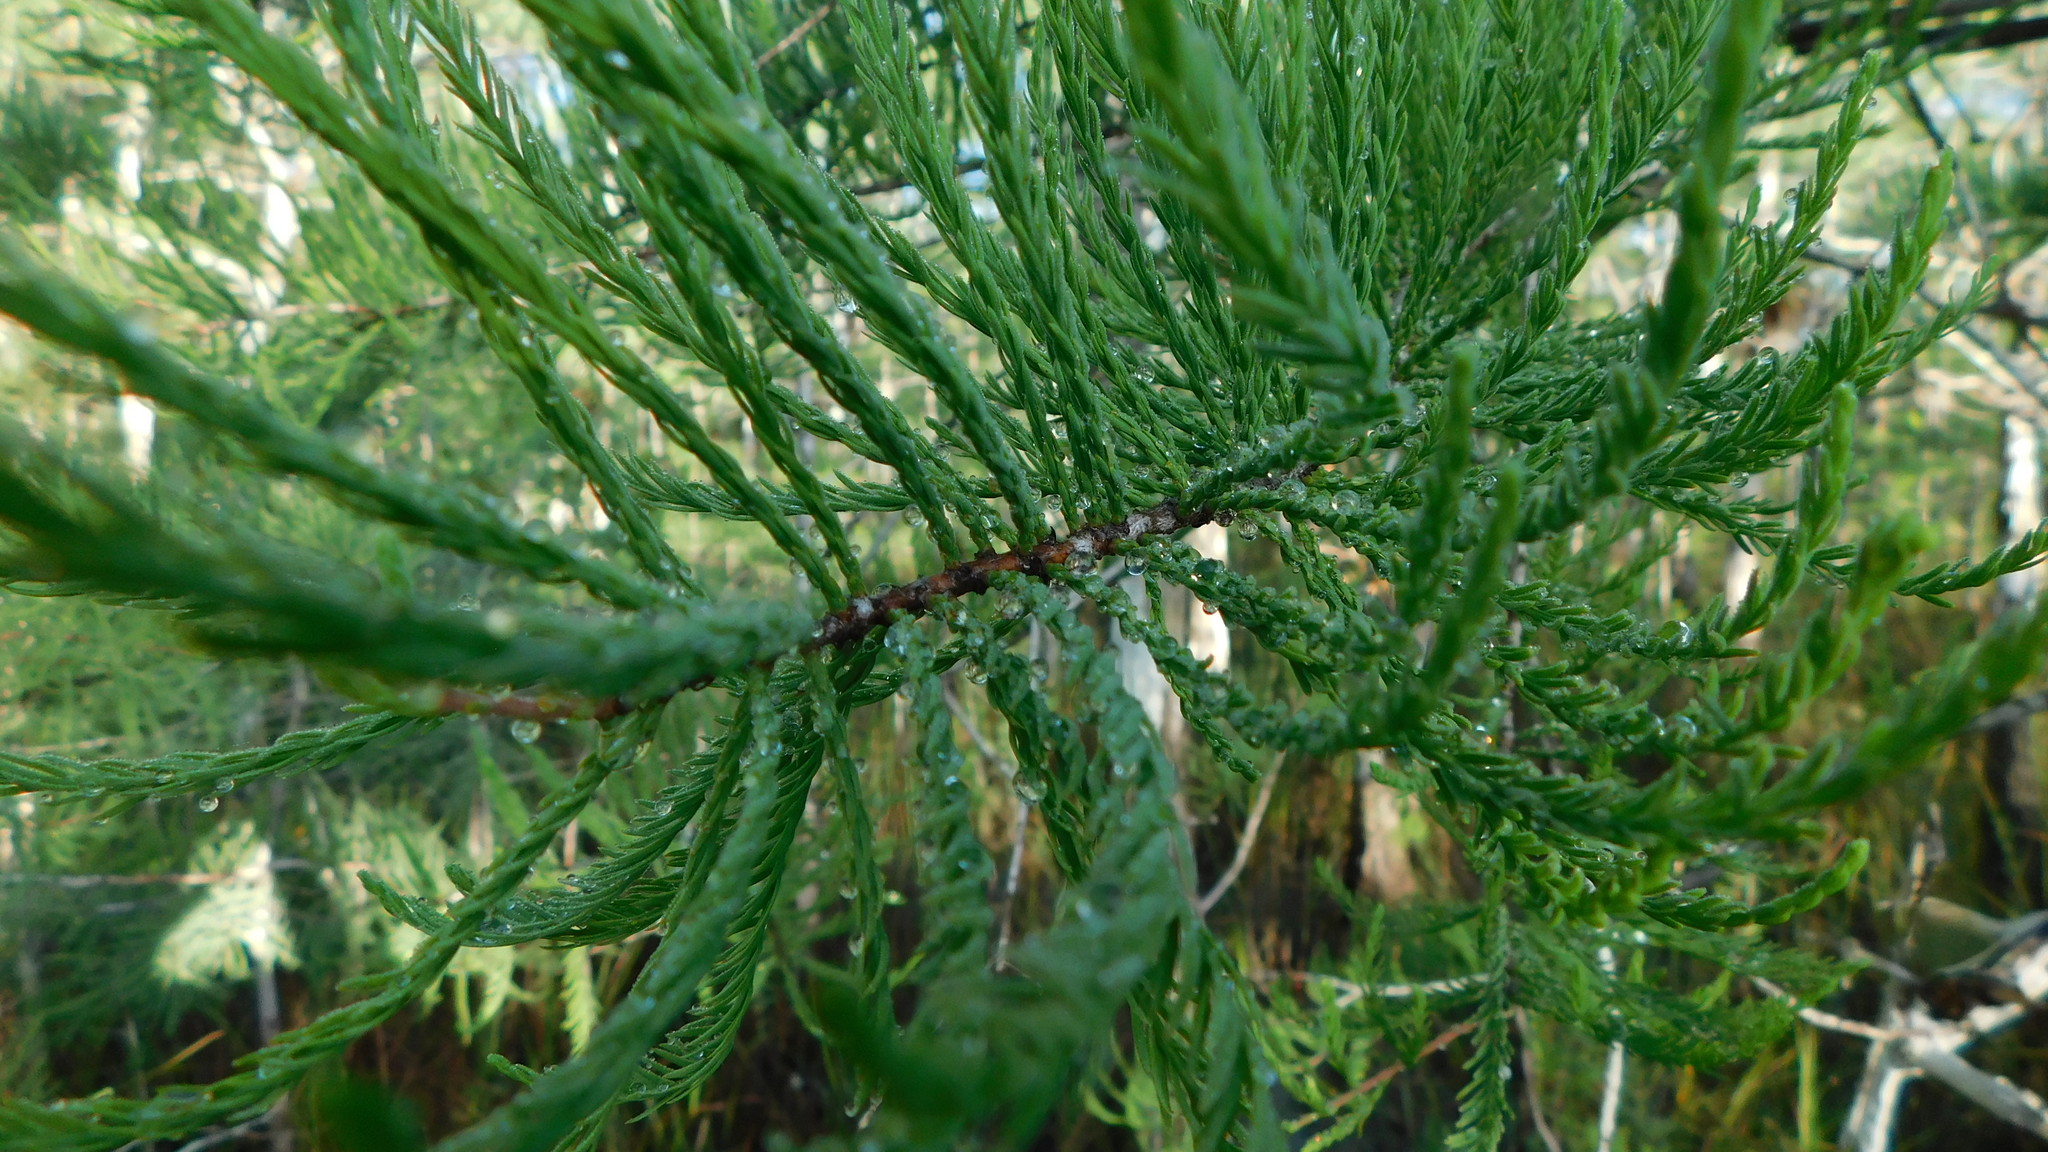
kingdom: Plantae
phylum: Tracheophyta
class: Pinopsida
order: Pinales
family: Cupressaceae
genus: Taxodium
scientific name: Taxodium distichum
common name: Bald cypress
